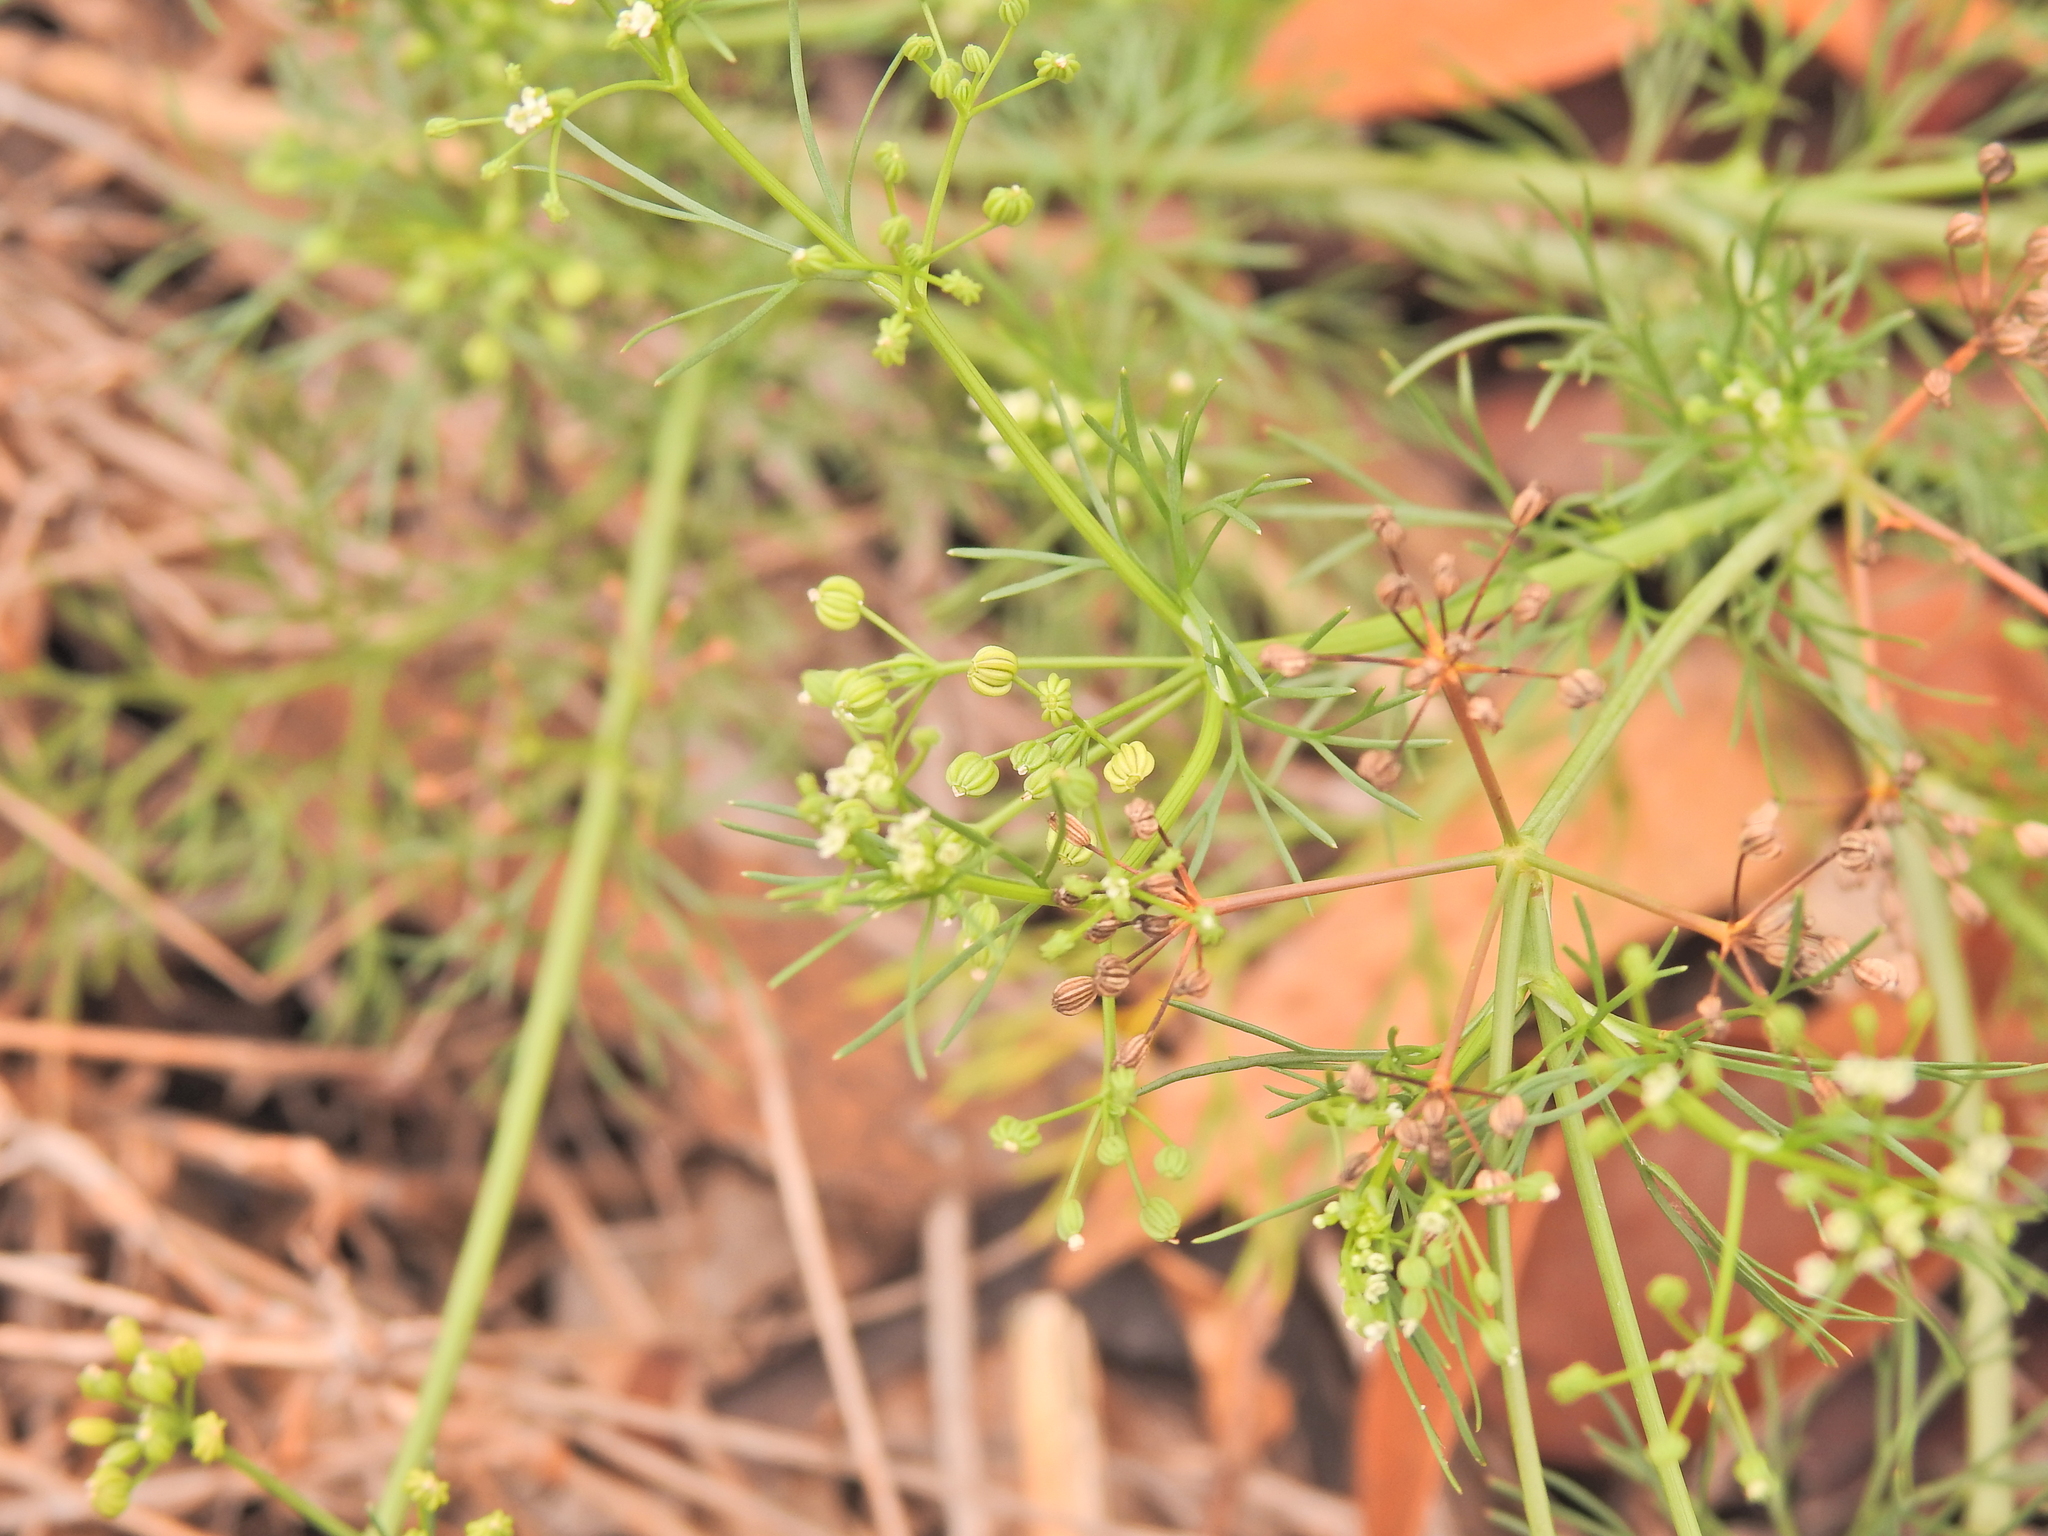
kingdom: Plantae
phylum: Tracheophyta
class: Magnoliopsida
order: Apiales
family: Apiaceae
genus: Cyclospermum
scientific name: Cyclospermum leptophyllum
